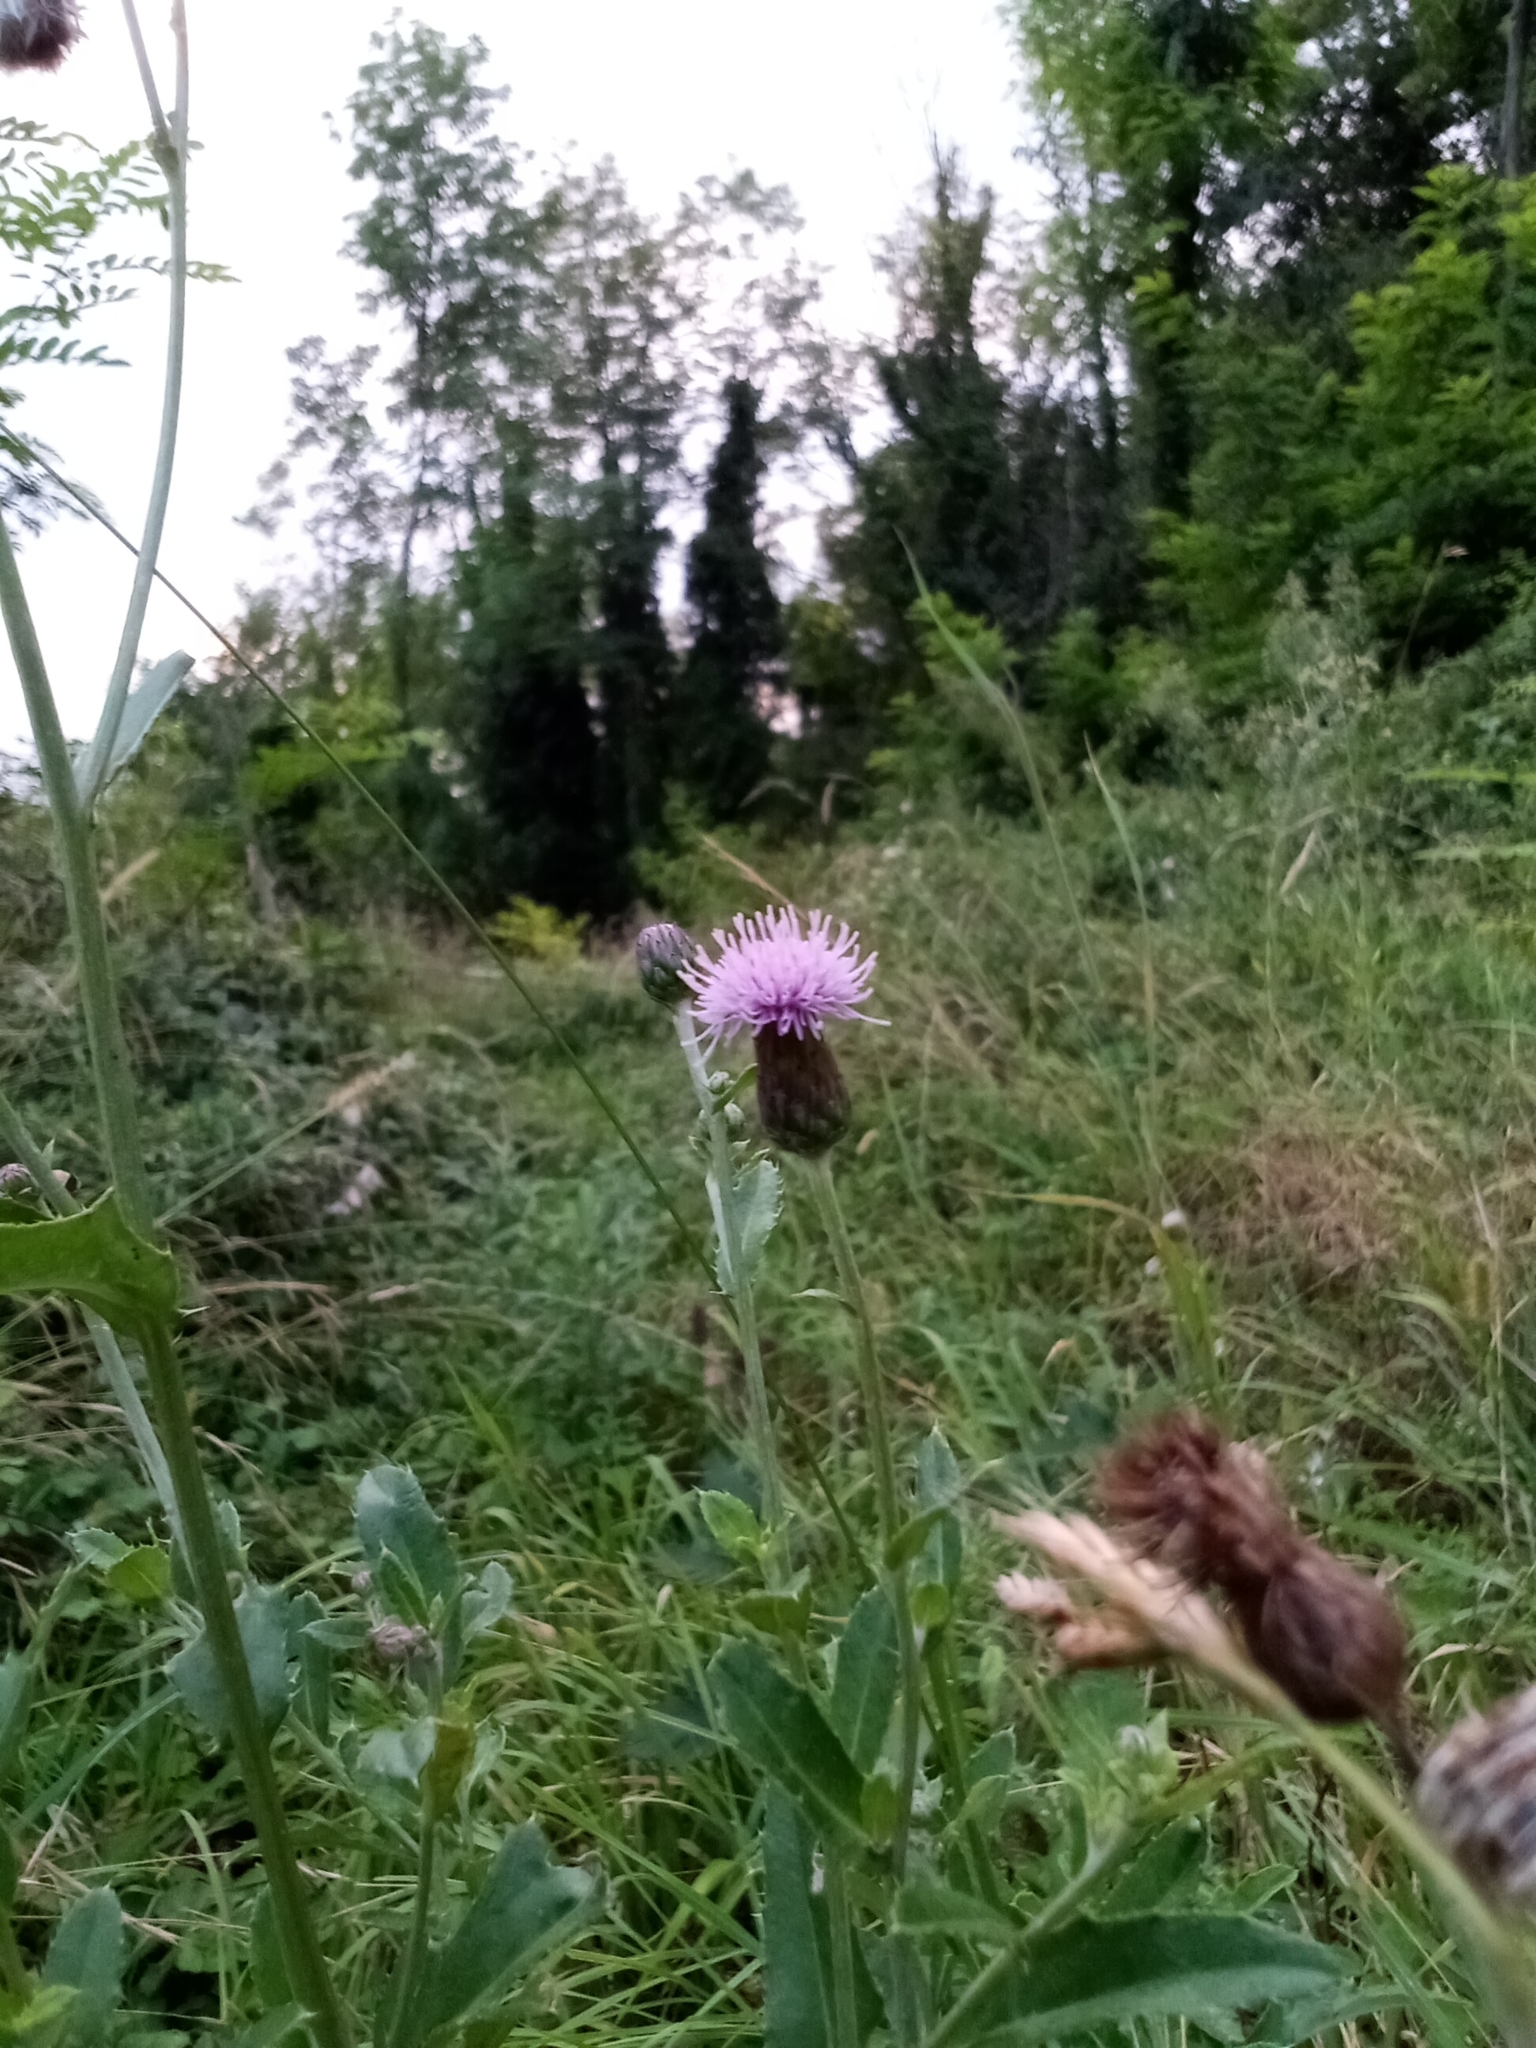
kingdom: Plantae
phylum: Tracheophyta
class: Magnoliopsida
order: Asterales
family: Asteraceae
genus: Cirsium
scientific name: Cirsium arvense
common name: Creeping thistle
